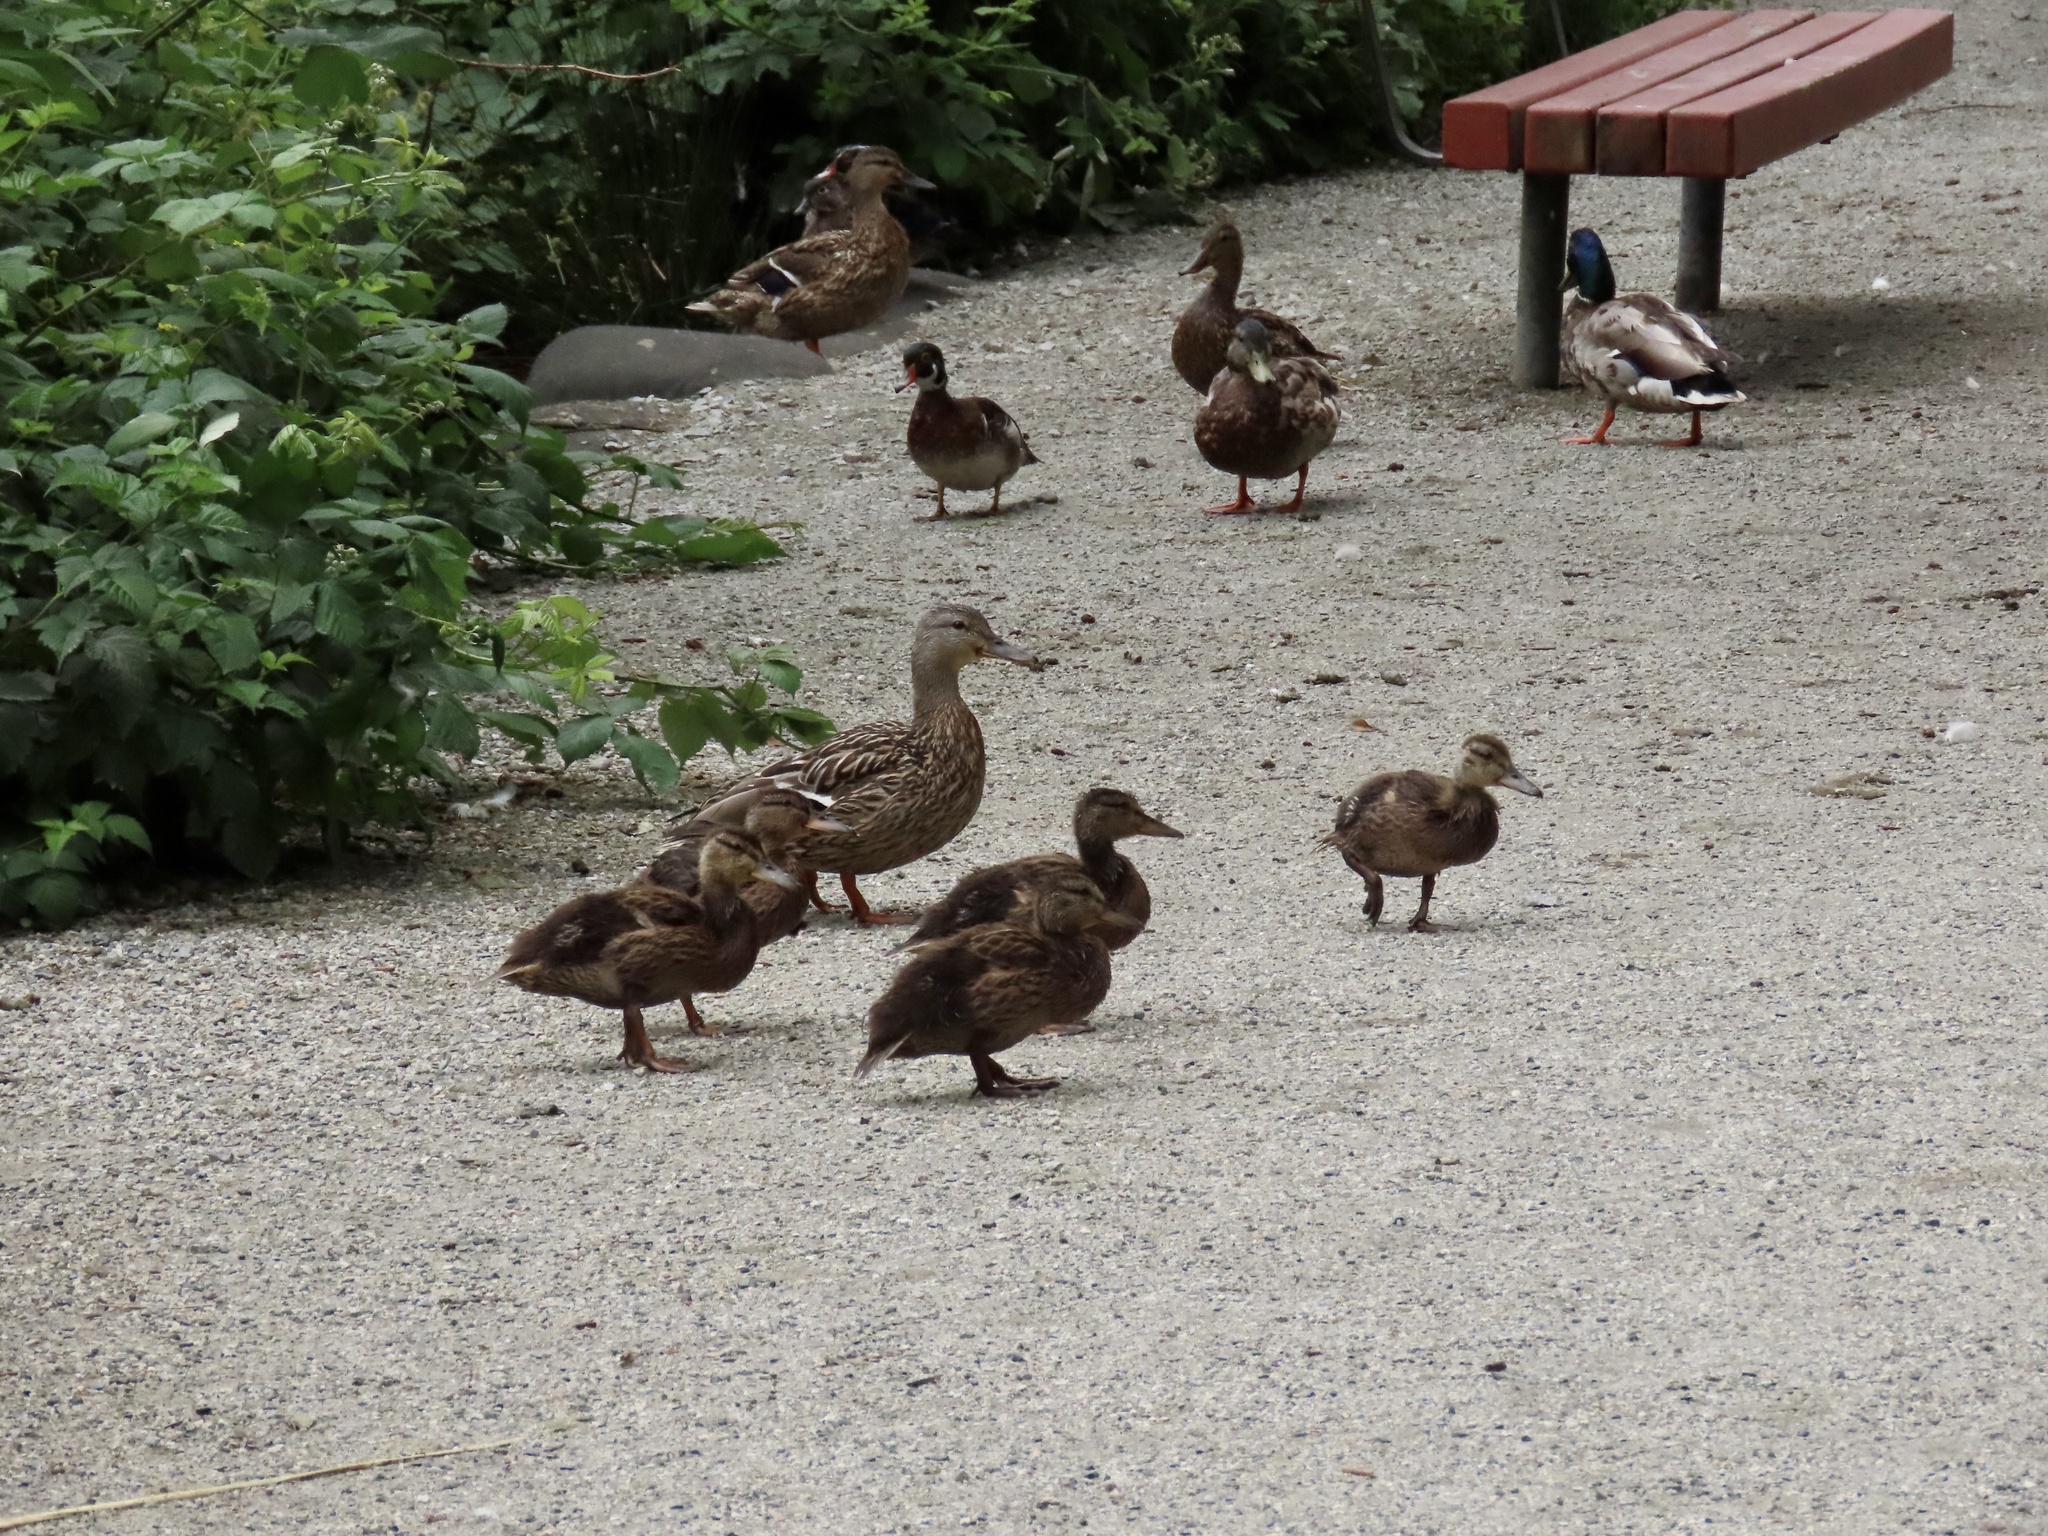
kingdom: Animalia
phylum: Chordata
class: Aves
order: Anseriformes
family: Anatidae
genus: Anas
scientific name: Anas platyrhynchos
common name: Mallard
